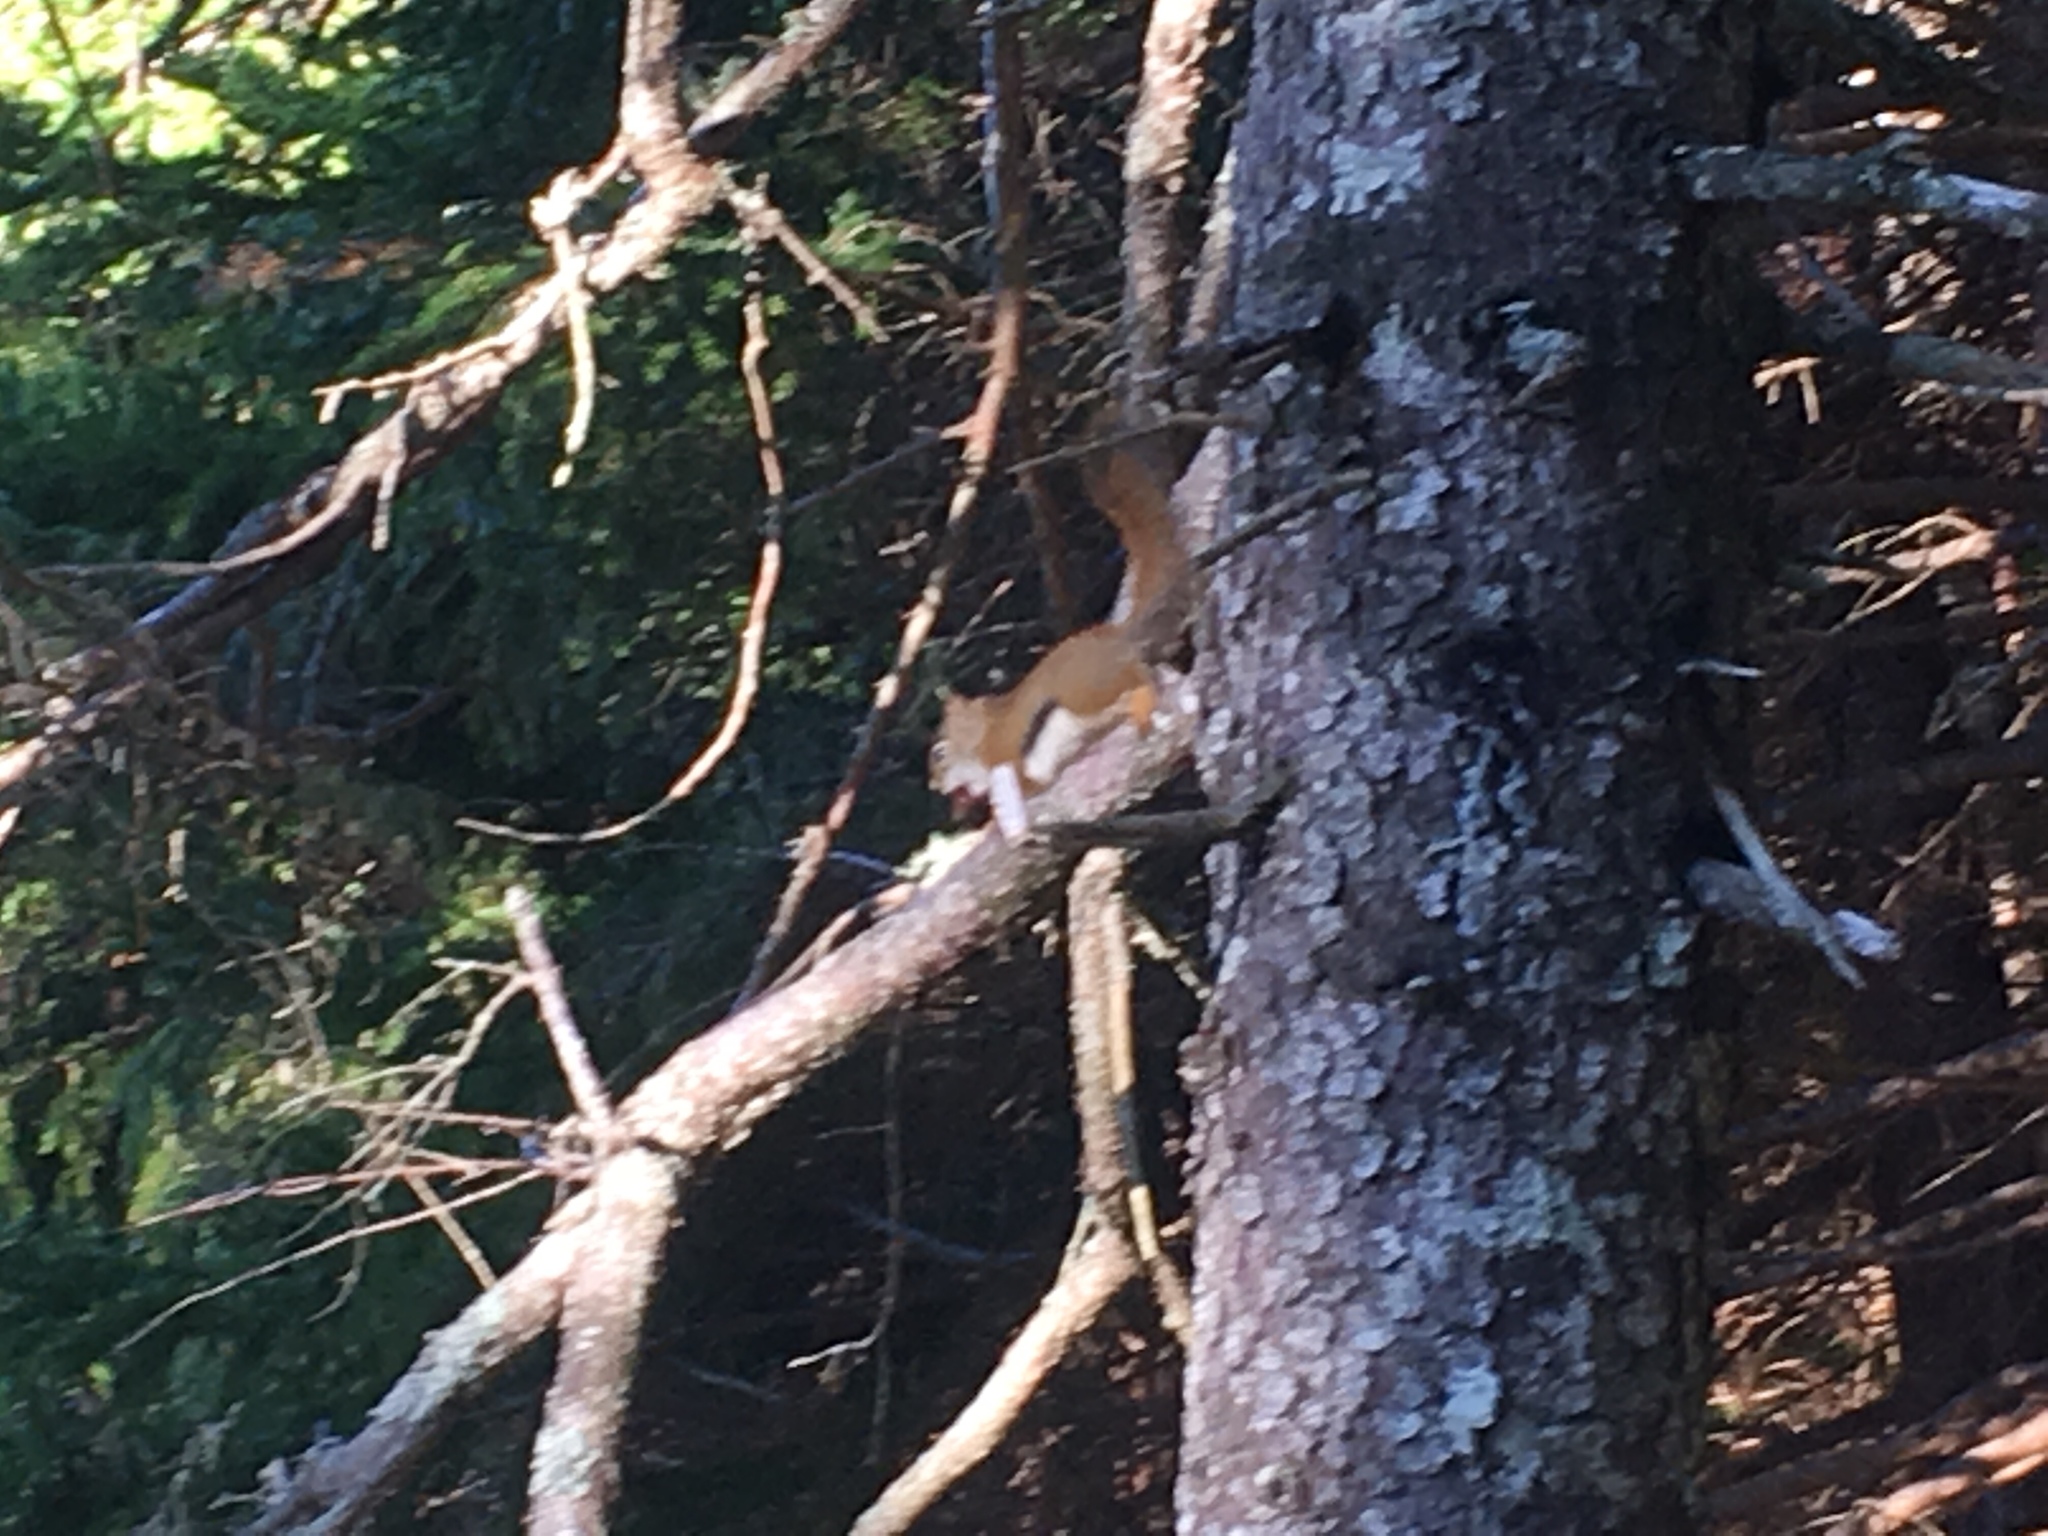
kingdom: Animalia
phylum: Chordata
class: Mammalia
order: Rodentia
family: Sciuridae
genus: Tamiasciurus
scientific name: Tamiasciurus hudsonicus
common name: Red squirrel
